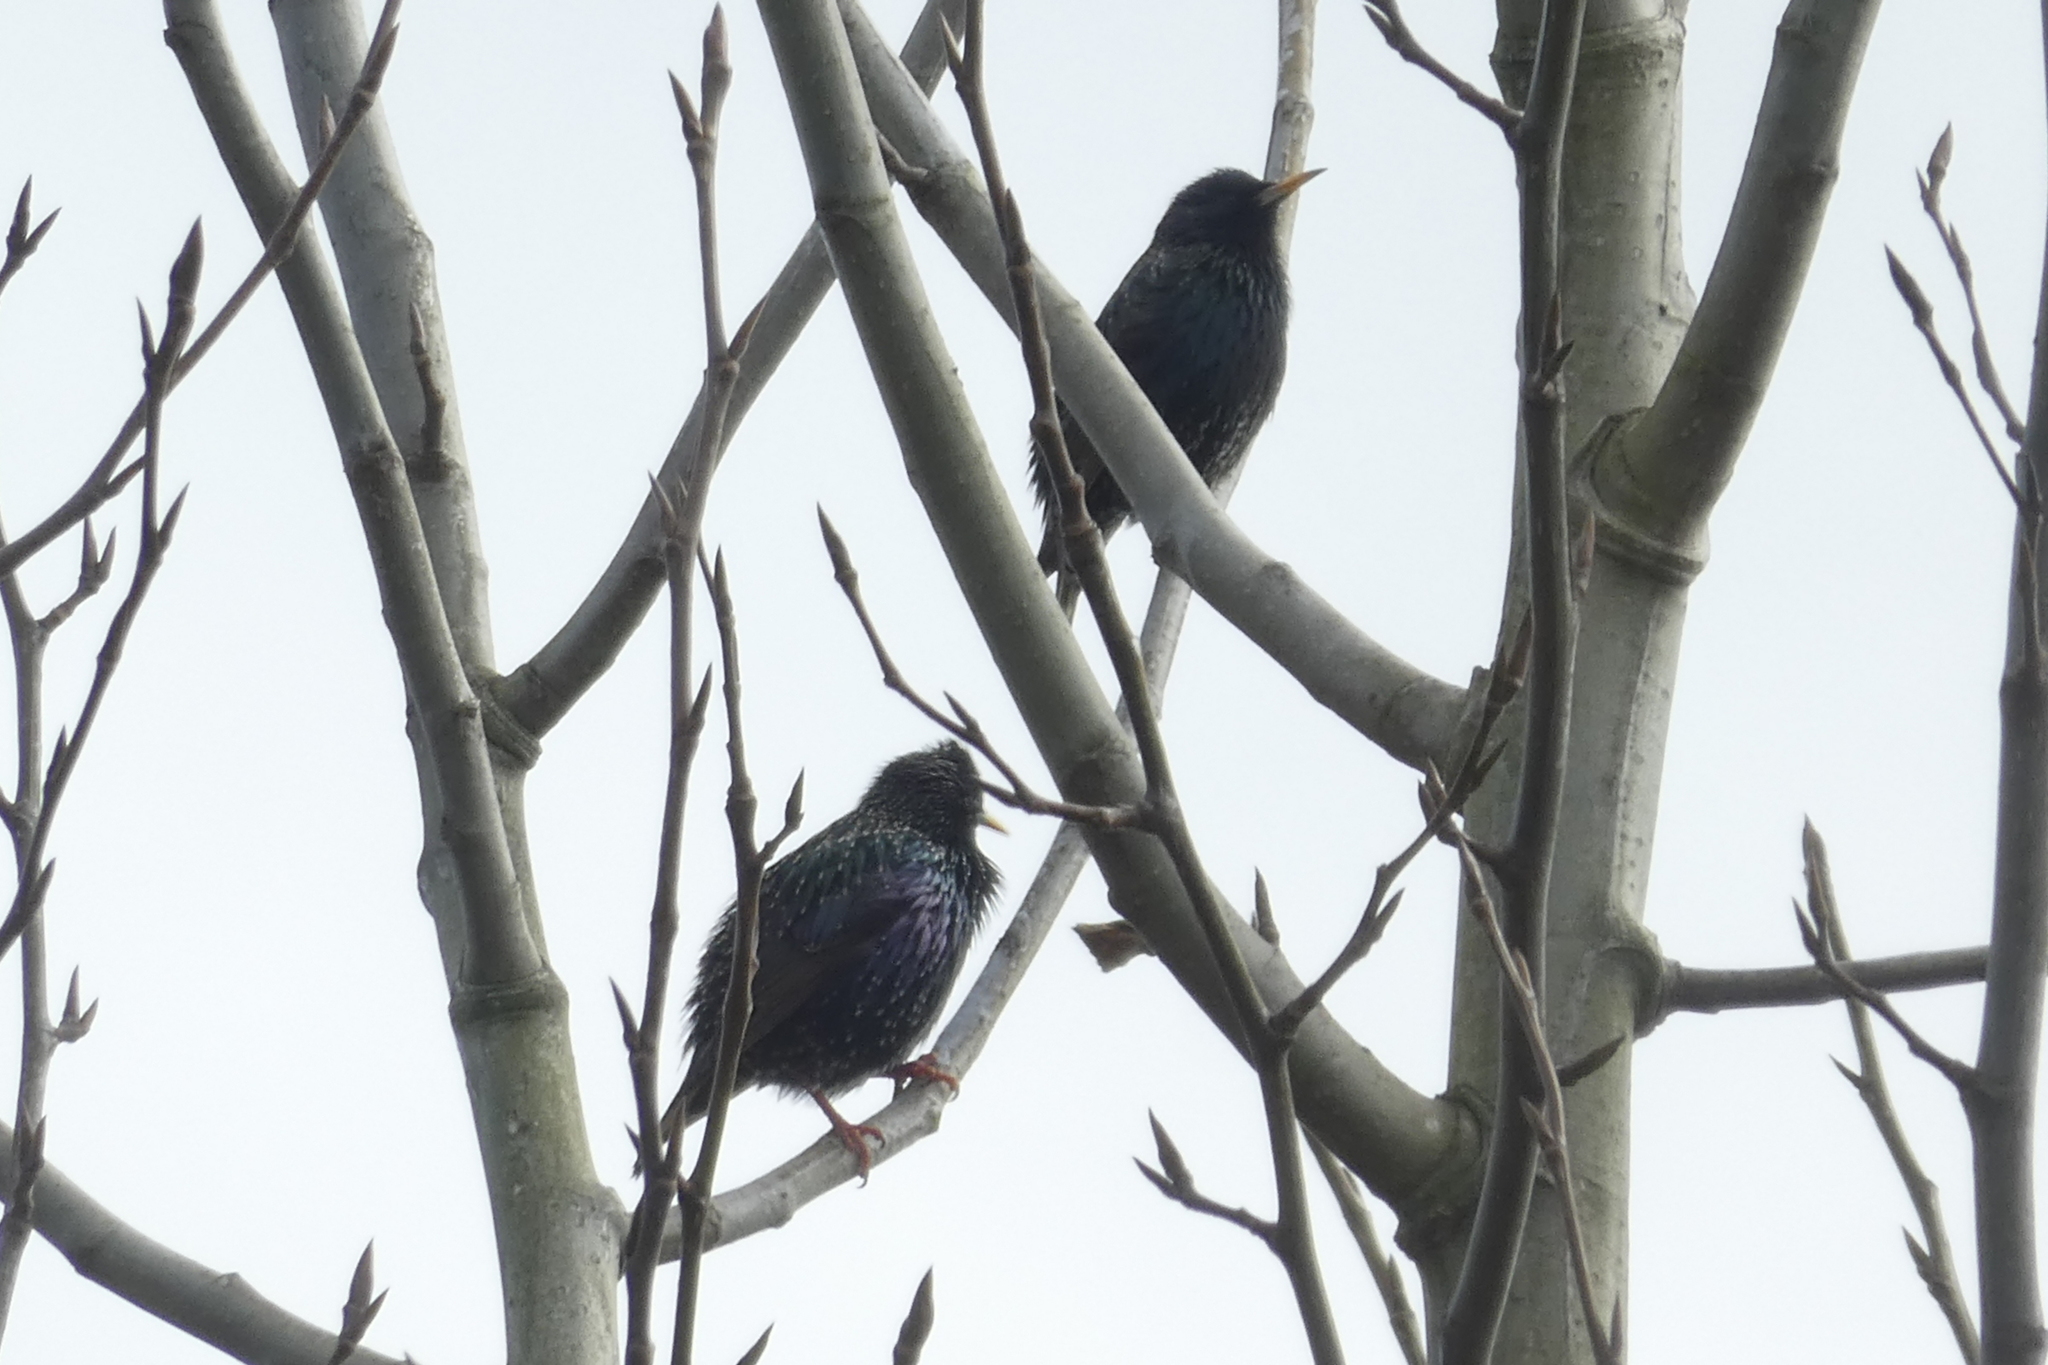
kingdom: Animalia
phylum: Chordata
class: Aves
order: Passeriformes
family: Sturnidae
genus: Sturnus
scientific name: Sturnus vulgaris
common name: Common starling
